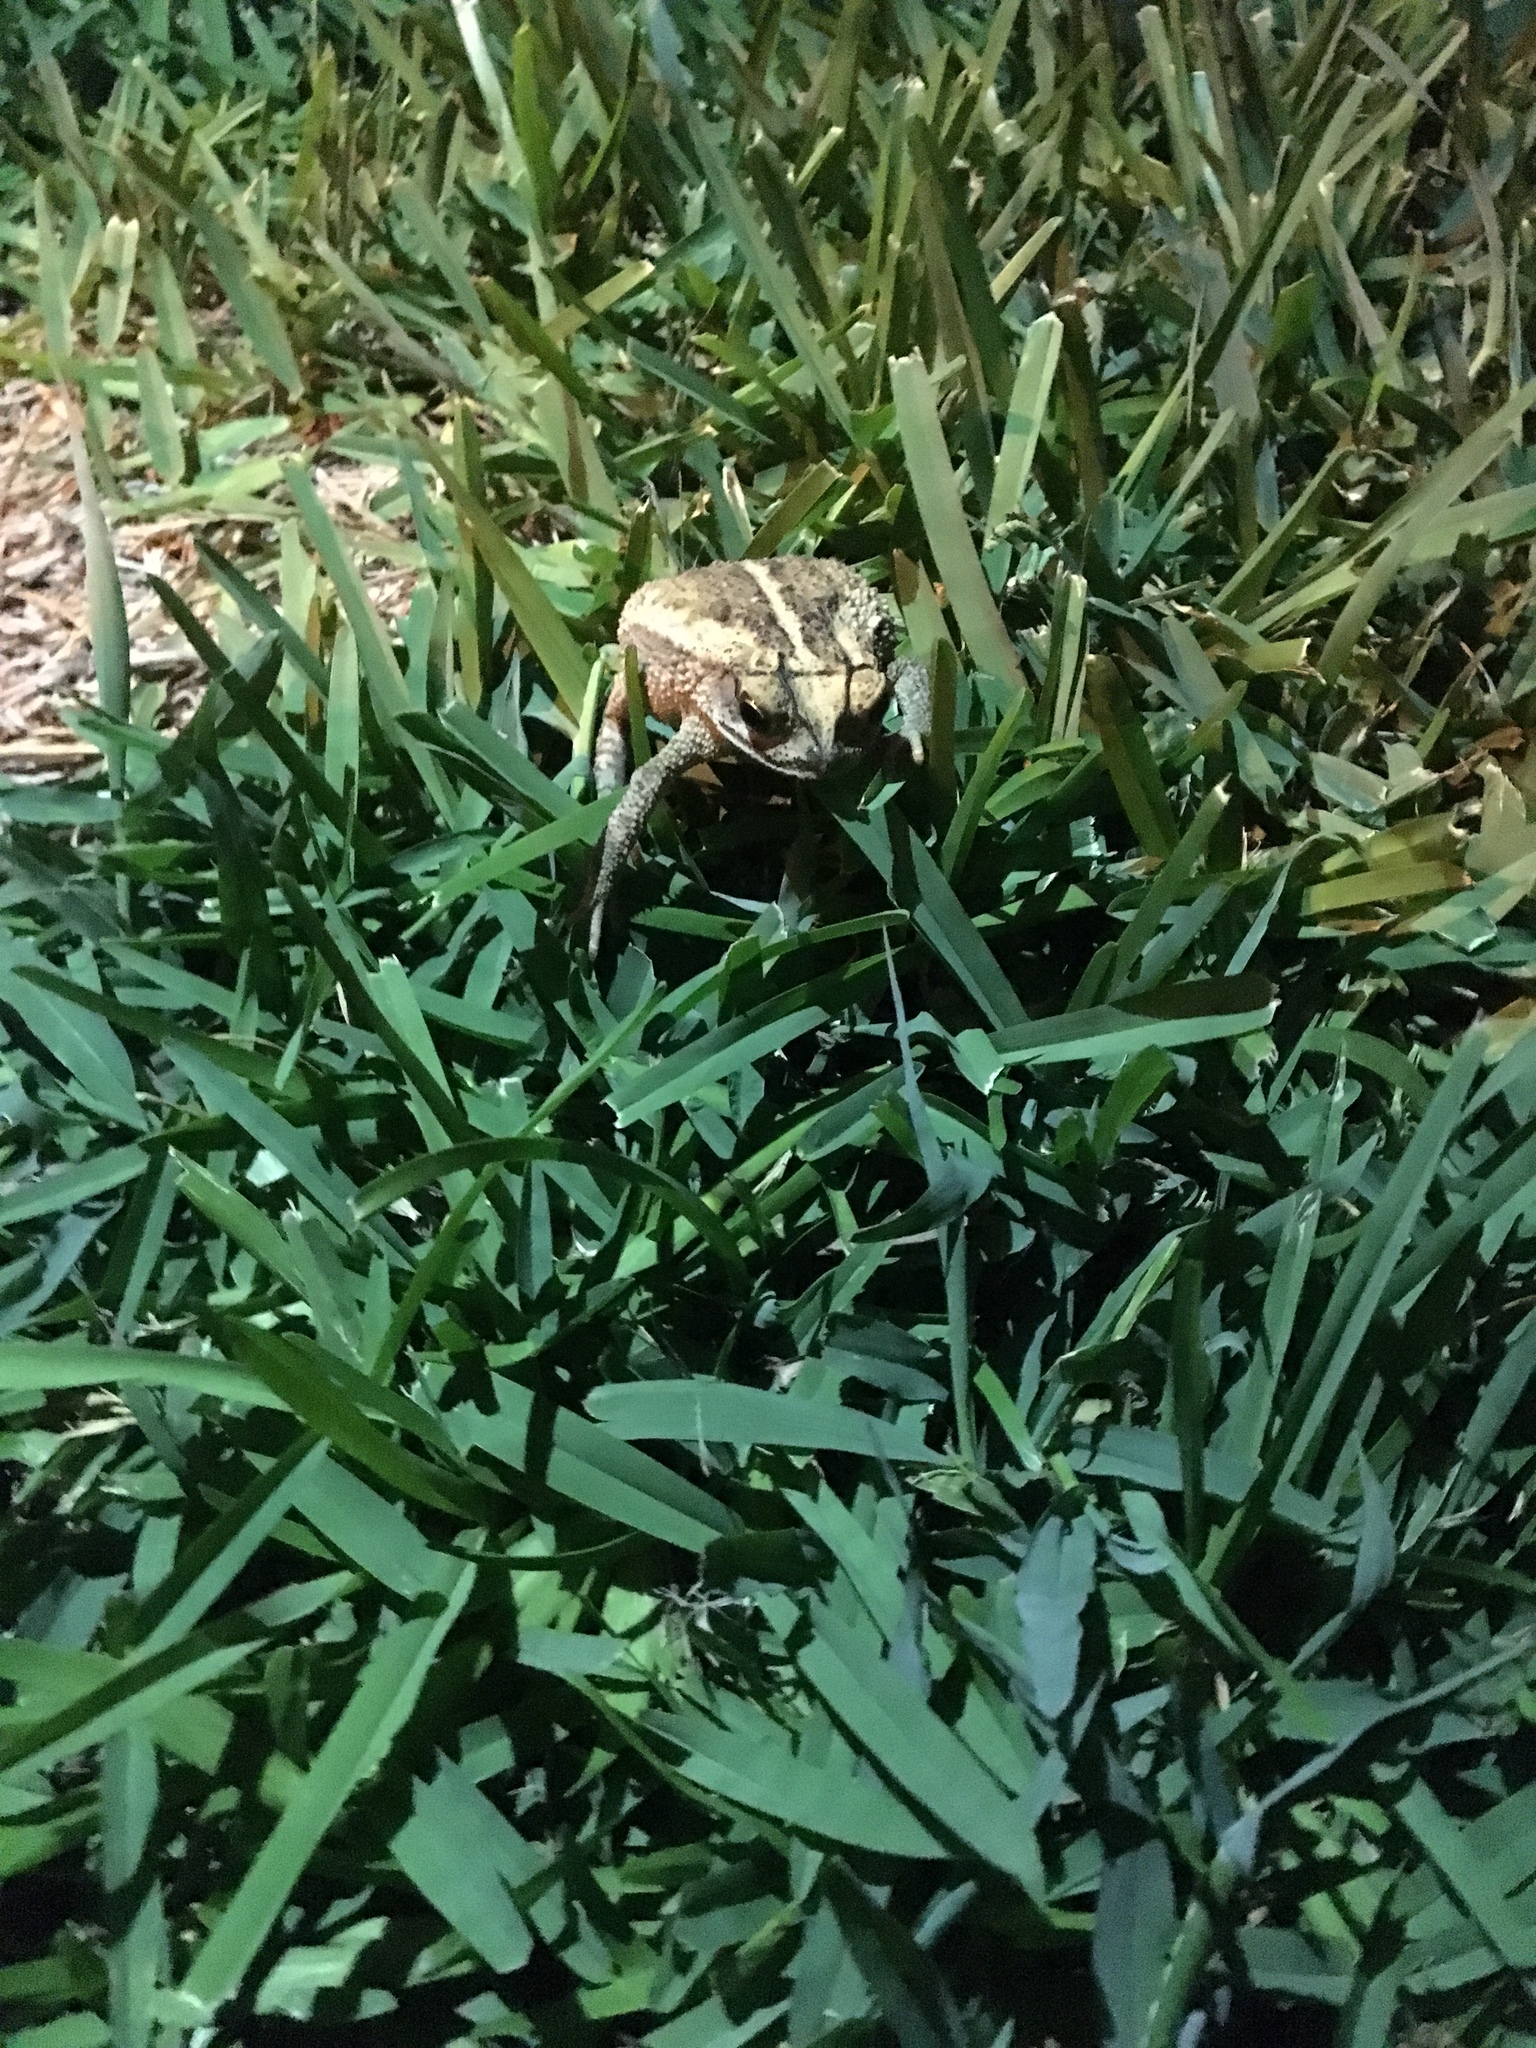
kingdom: Animalia
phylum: Chordata
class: Amphibia
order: Anura
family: Bufonidae
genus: Incilius
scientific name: Incilius nebulifer
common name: Gulf coast toad
